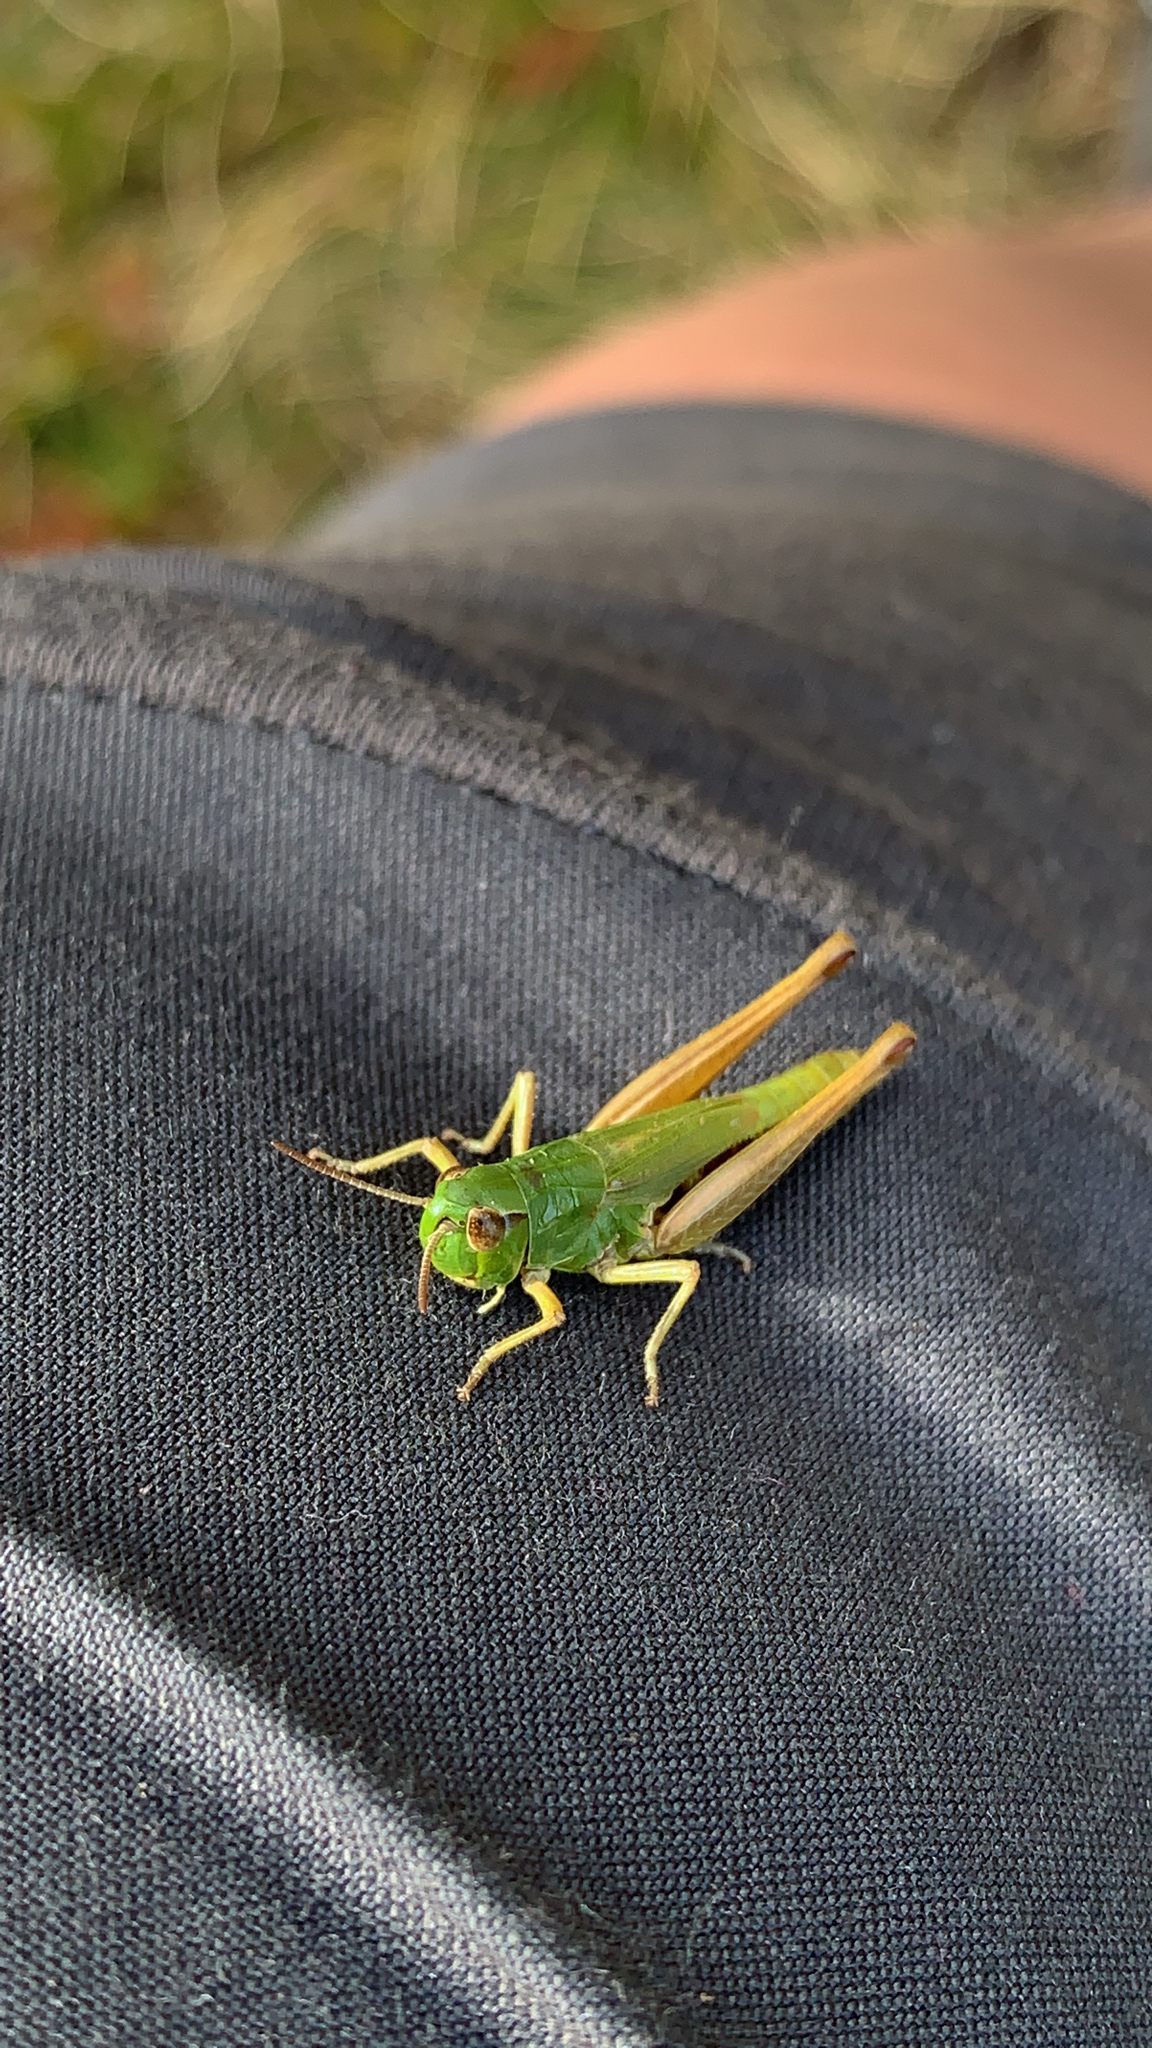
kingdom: Animalia
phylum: Arthropoda
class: Insecta
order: Orthoptera
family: Acrididae
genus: Pseudochorthippus
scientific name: Pseudochorthippus parallelus
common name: Meadow grasshopper
